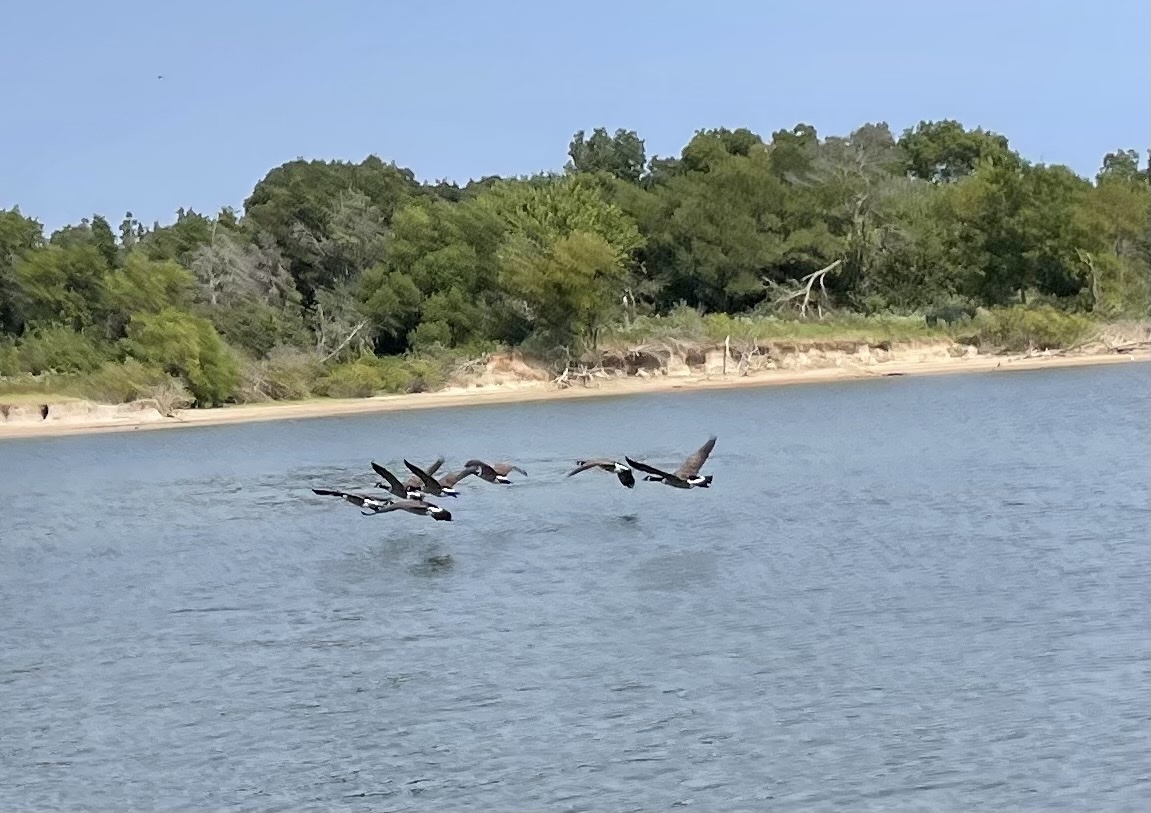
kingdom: Animalia
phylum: Chordata
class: Aves
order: Anseriformes
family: Anatidae
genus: Branta
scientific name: Branta canadensis
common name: Canada goose
